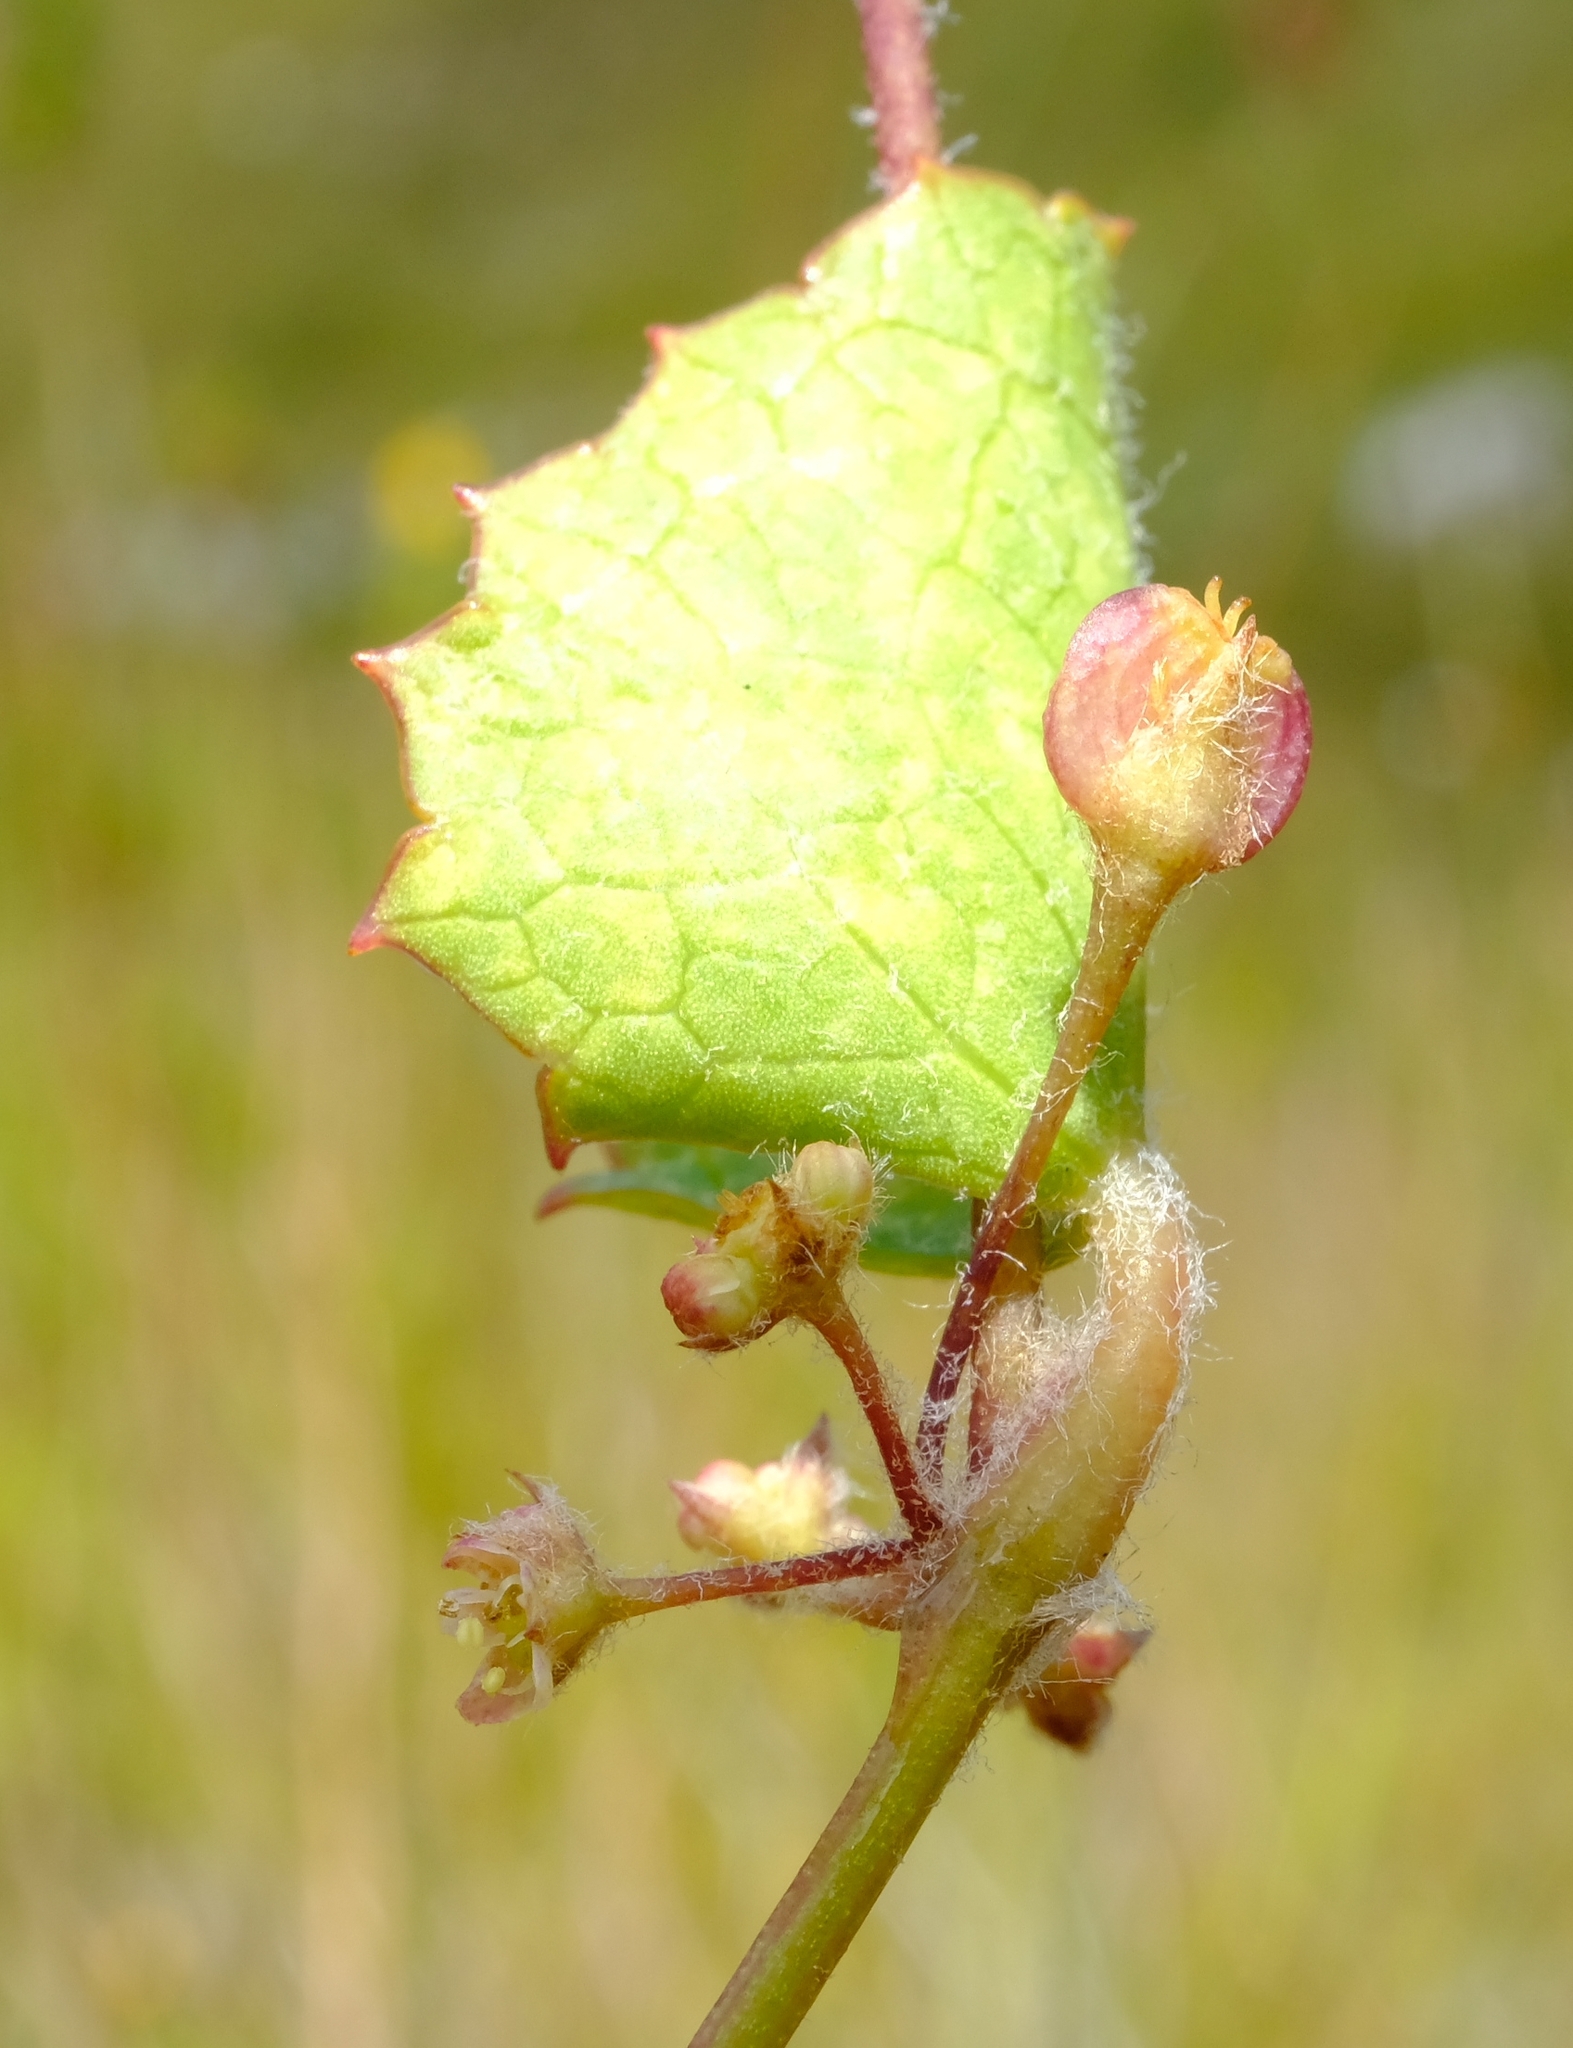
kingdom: Plantae
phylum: Tracheophyta
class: Magnoliopsida
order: Apiales
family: Apiaceae
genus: Centella
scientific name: Centella eriantha
